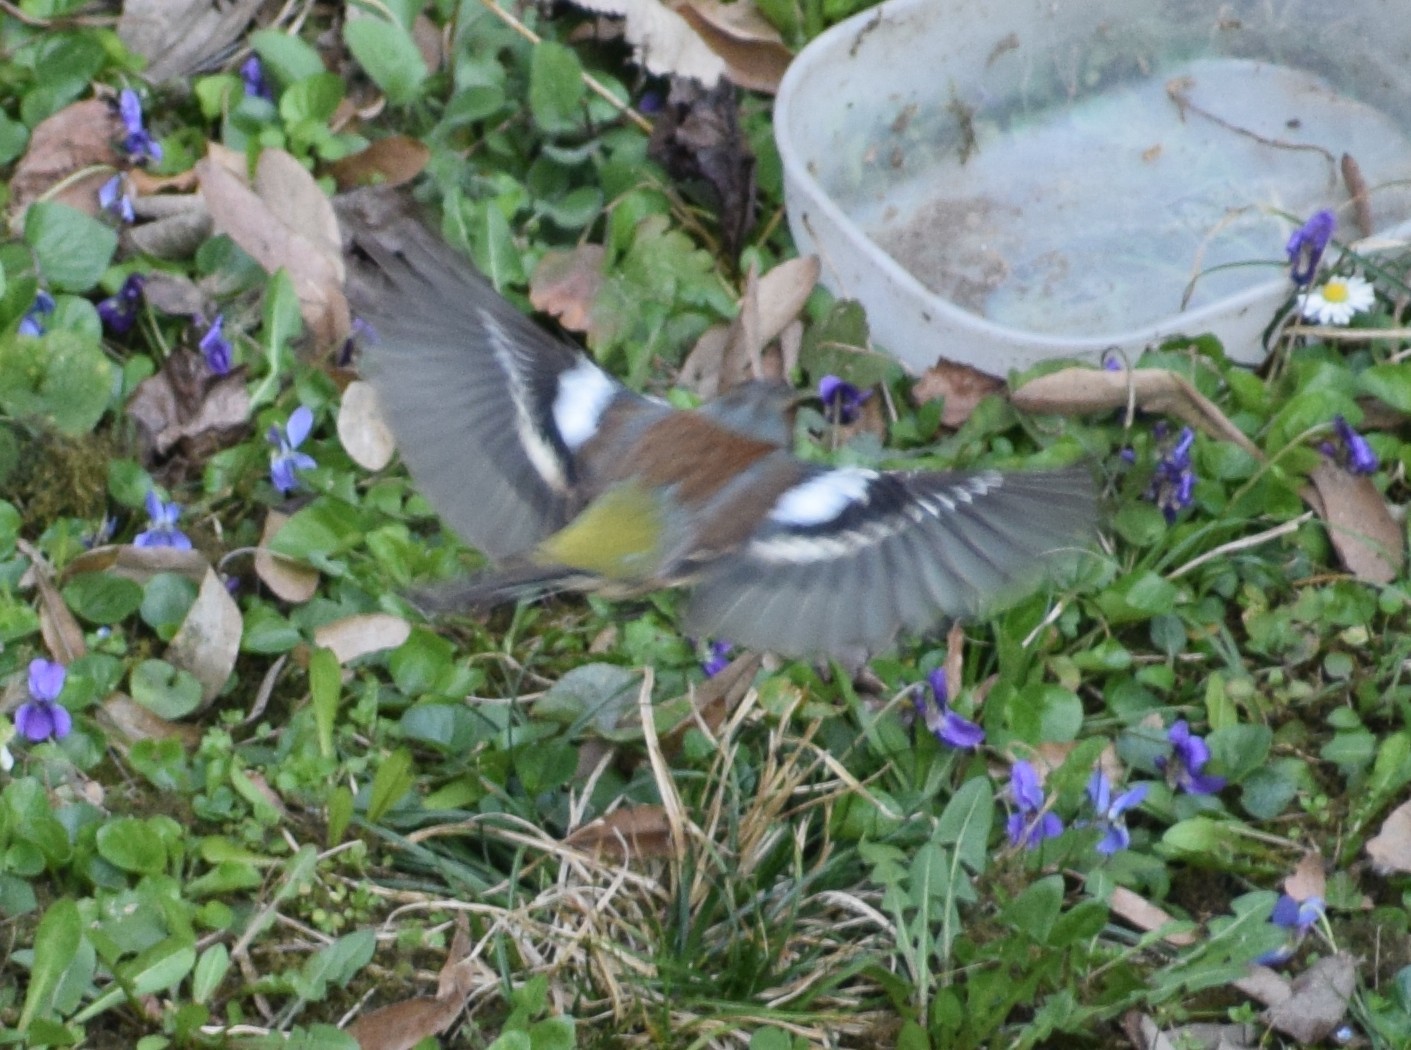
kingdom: Animalia
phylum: Chordata
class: Aves
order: Passeriformes
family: Fringillidae
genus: Fringilla
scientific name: Fringilla coelebs
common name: Common chaffinch
